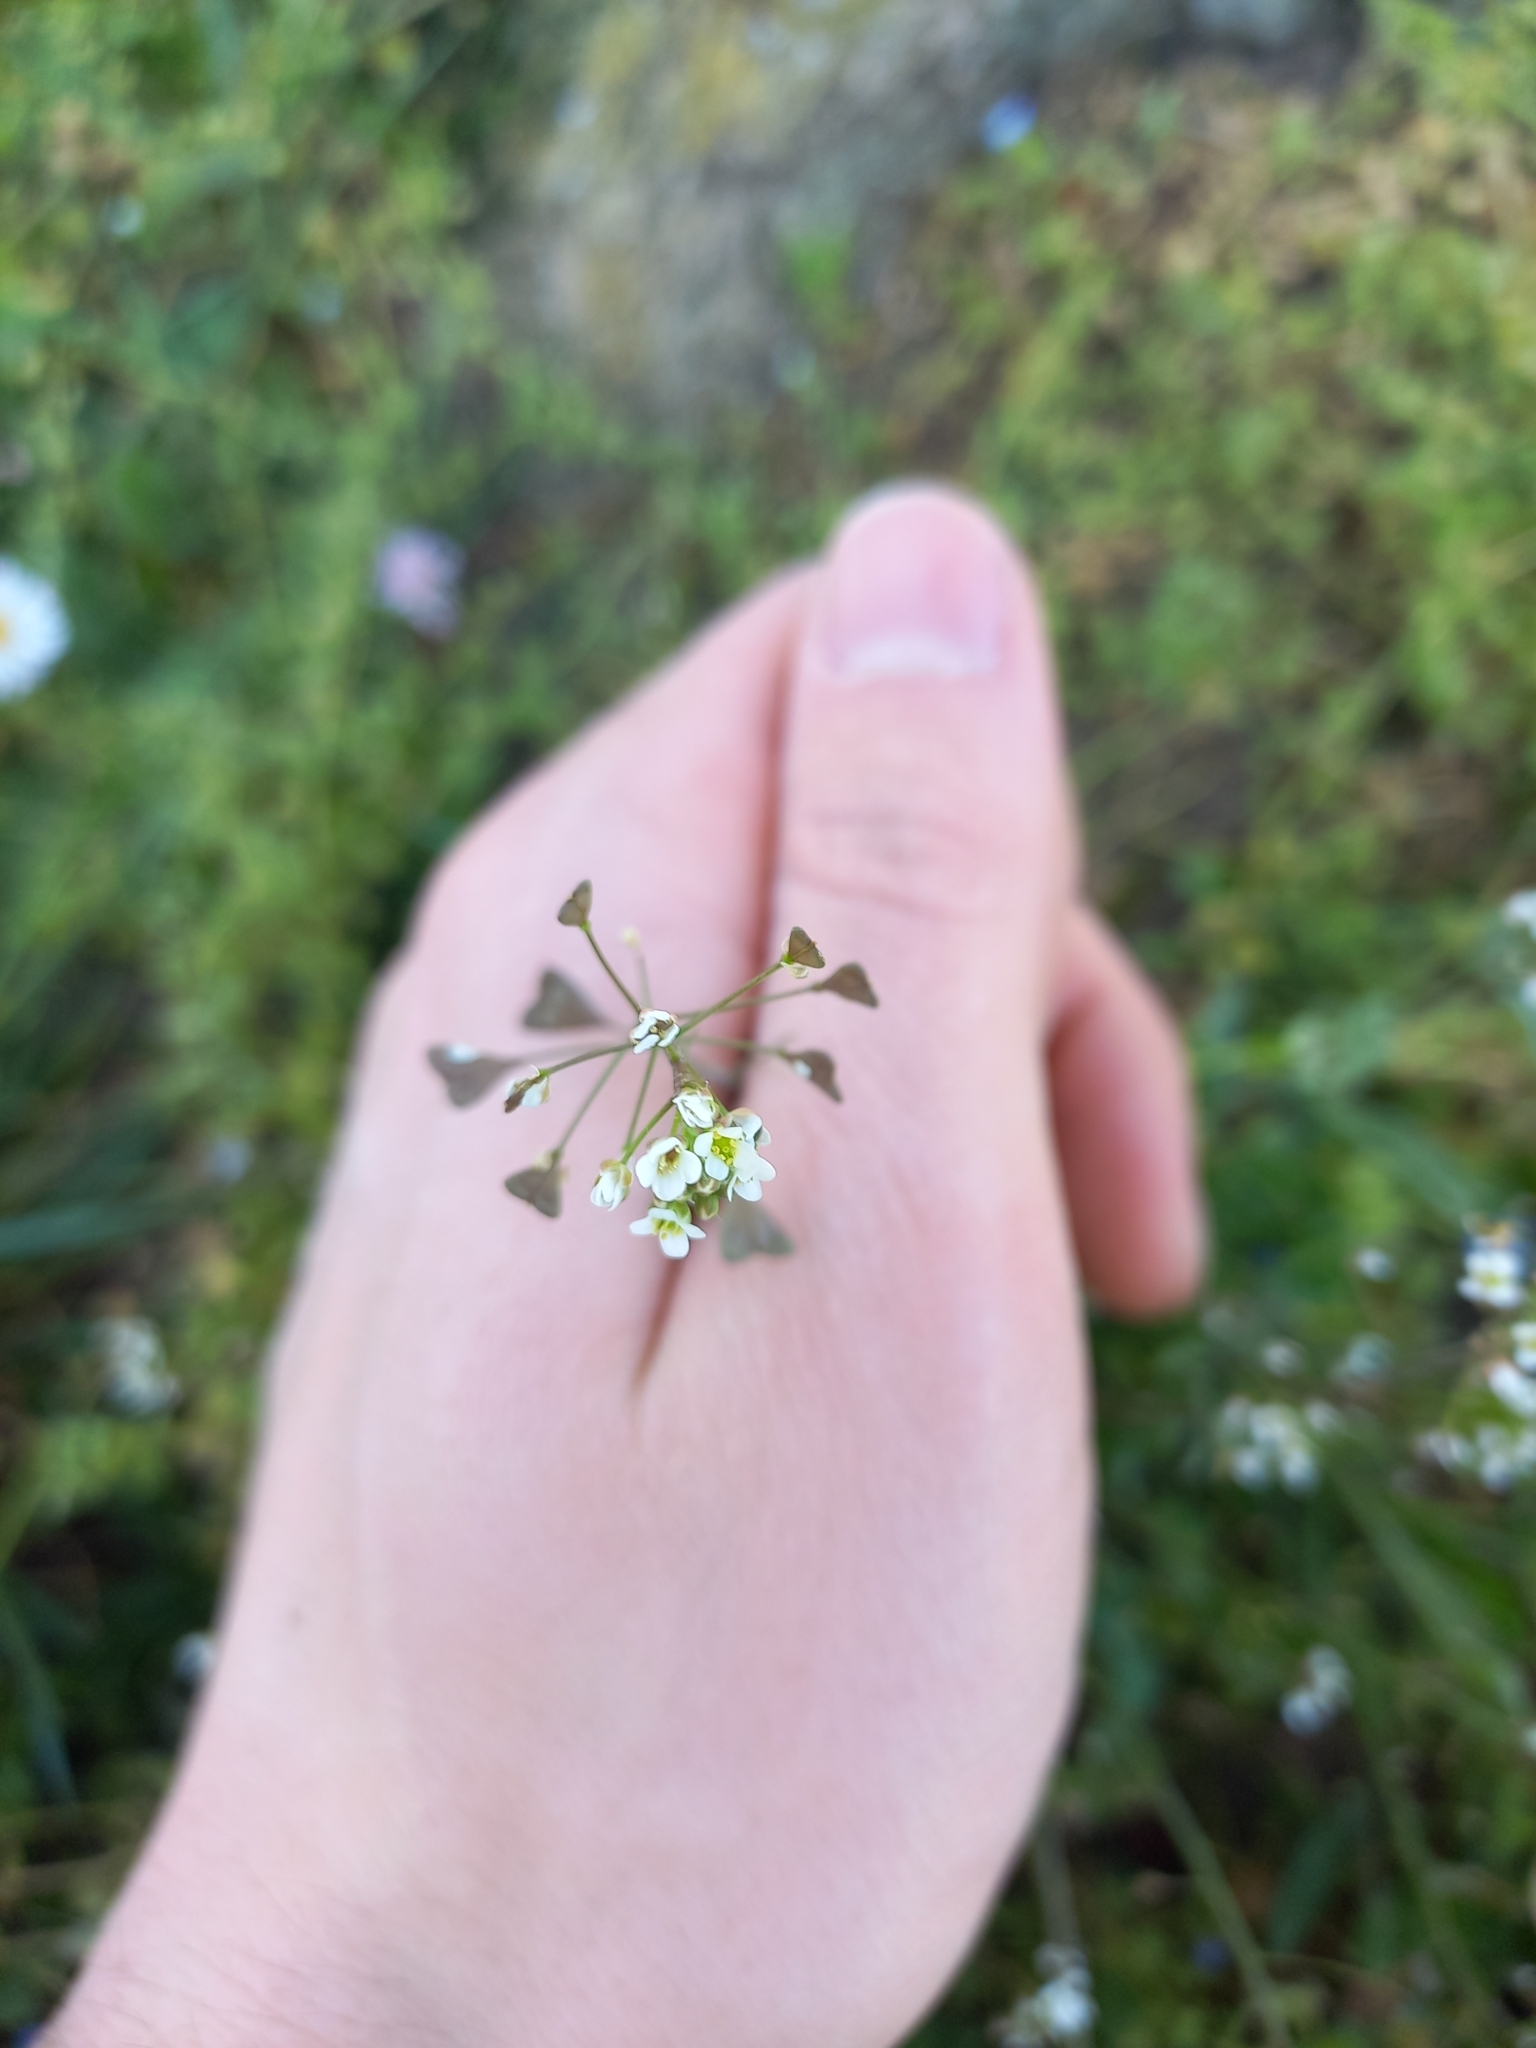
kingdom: Plantae
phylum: Tracheophyta
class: Magnoliopsida
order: Brassicales
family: Brassicaceae
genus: Capsella
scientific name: Capsella bursa-pastoris
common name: Shepherd's purse
